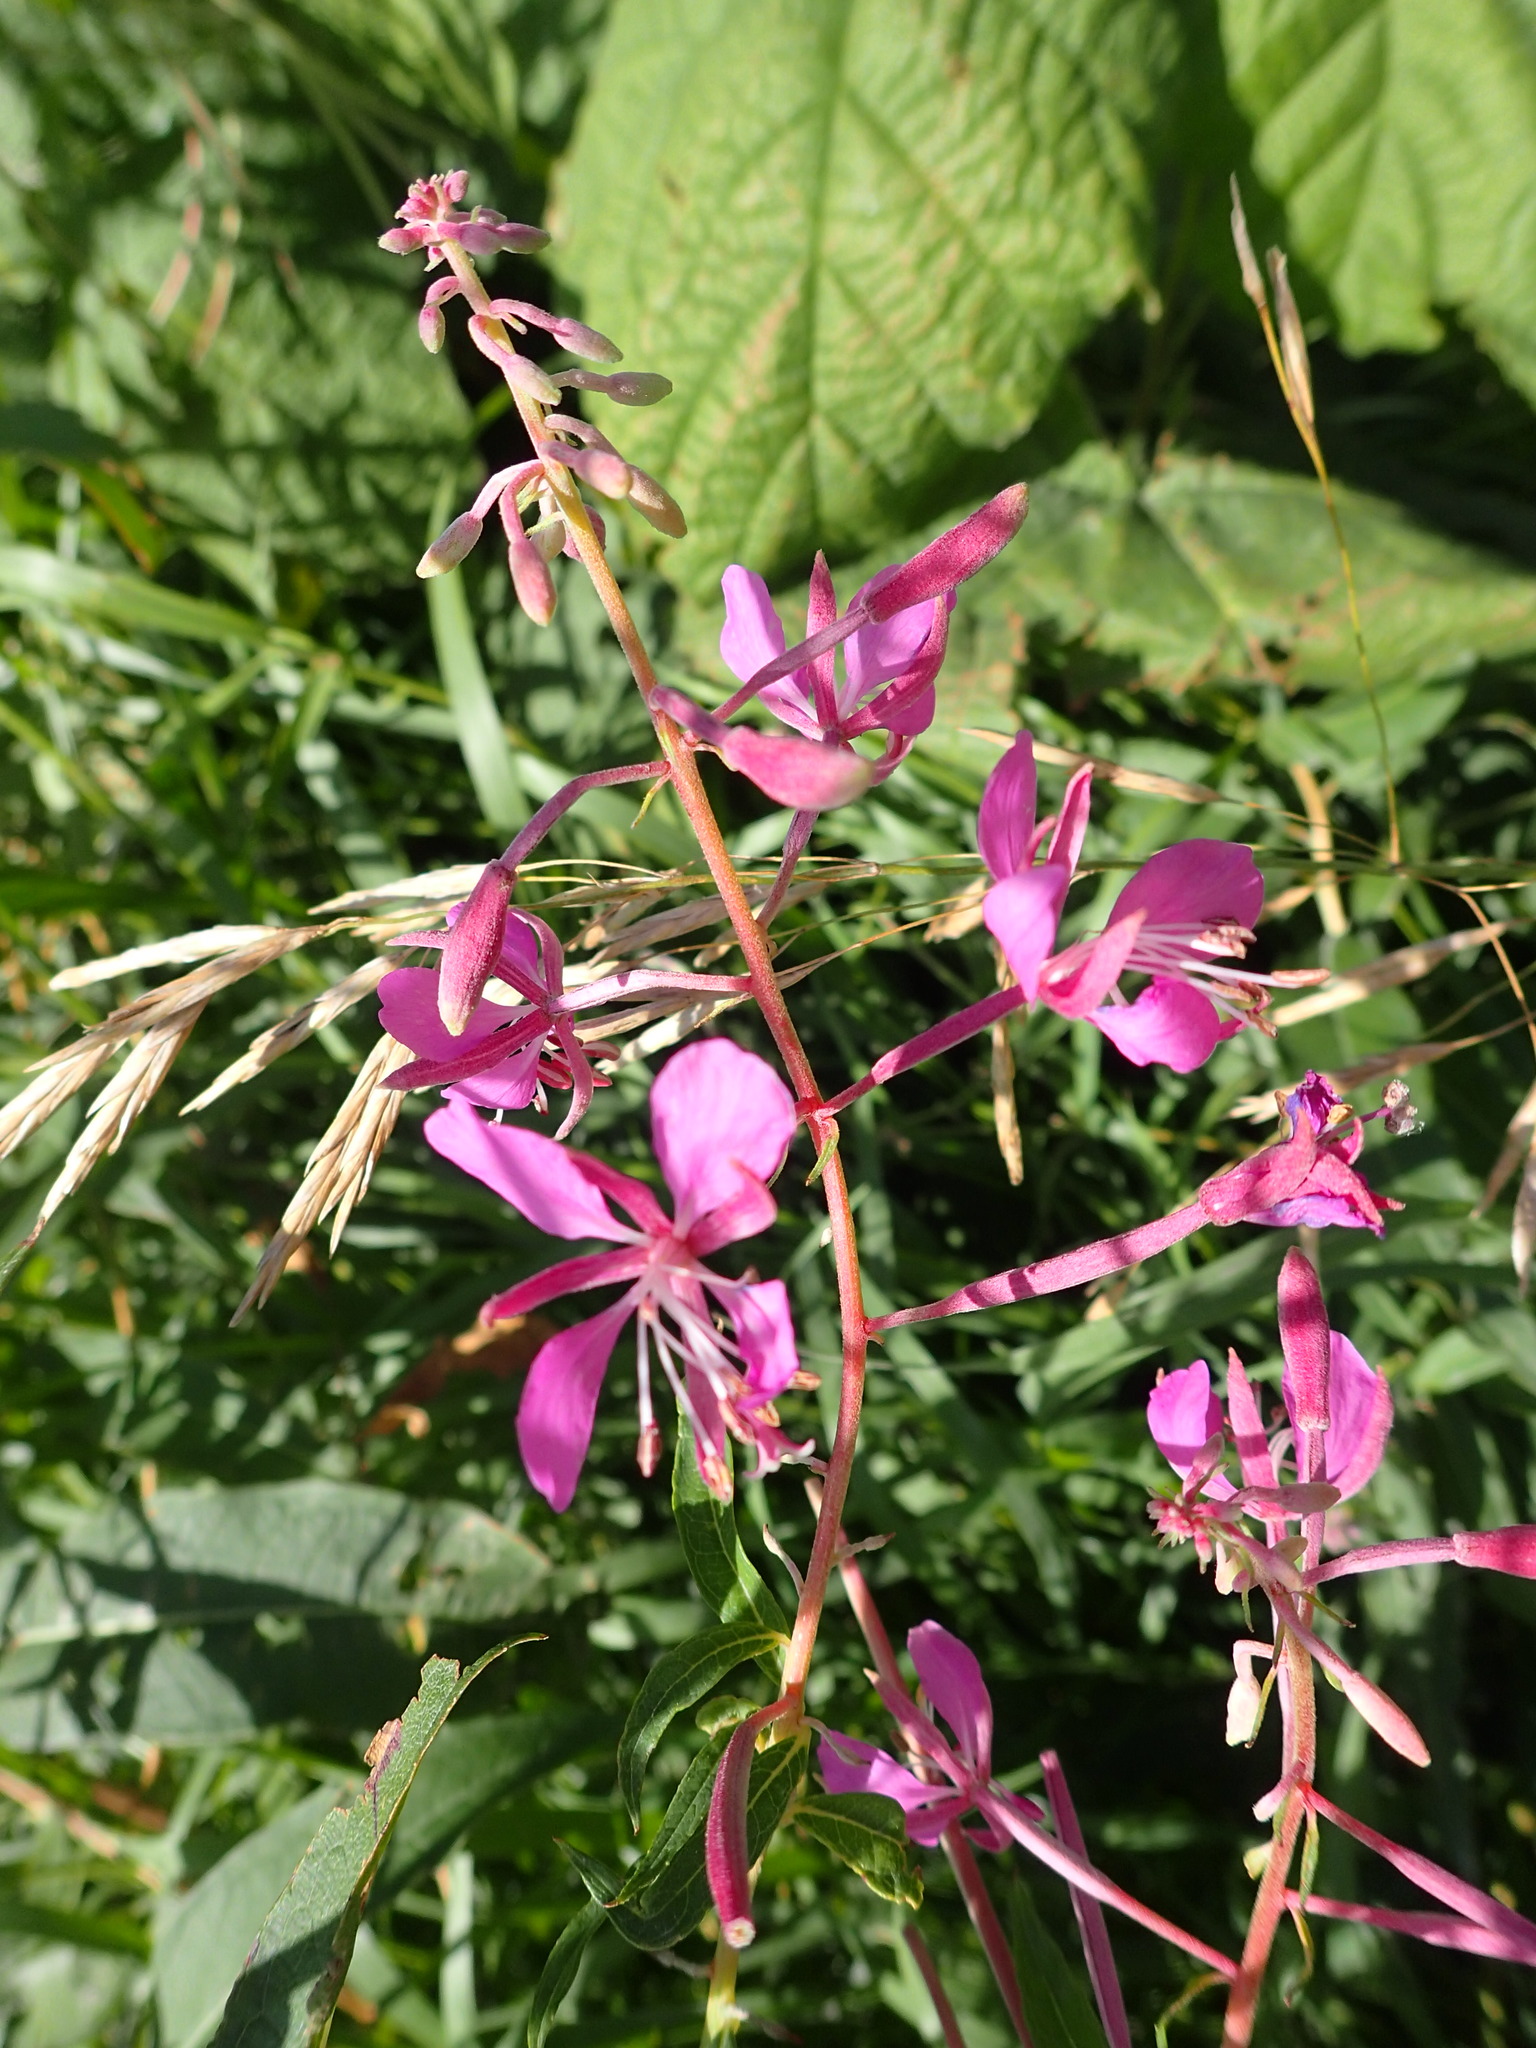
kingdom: Plantae
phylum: Tracheophyta
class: Magnoliopsida
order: Myrtales
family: Onagraceae
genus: Chamaenerion
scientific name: Chamaenerion angustifolium
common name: Fireweed
